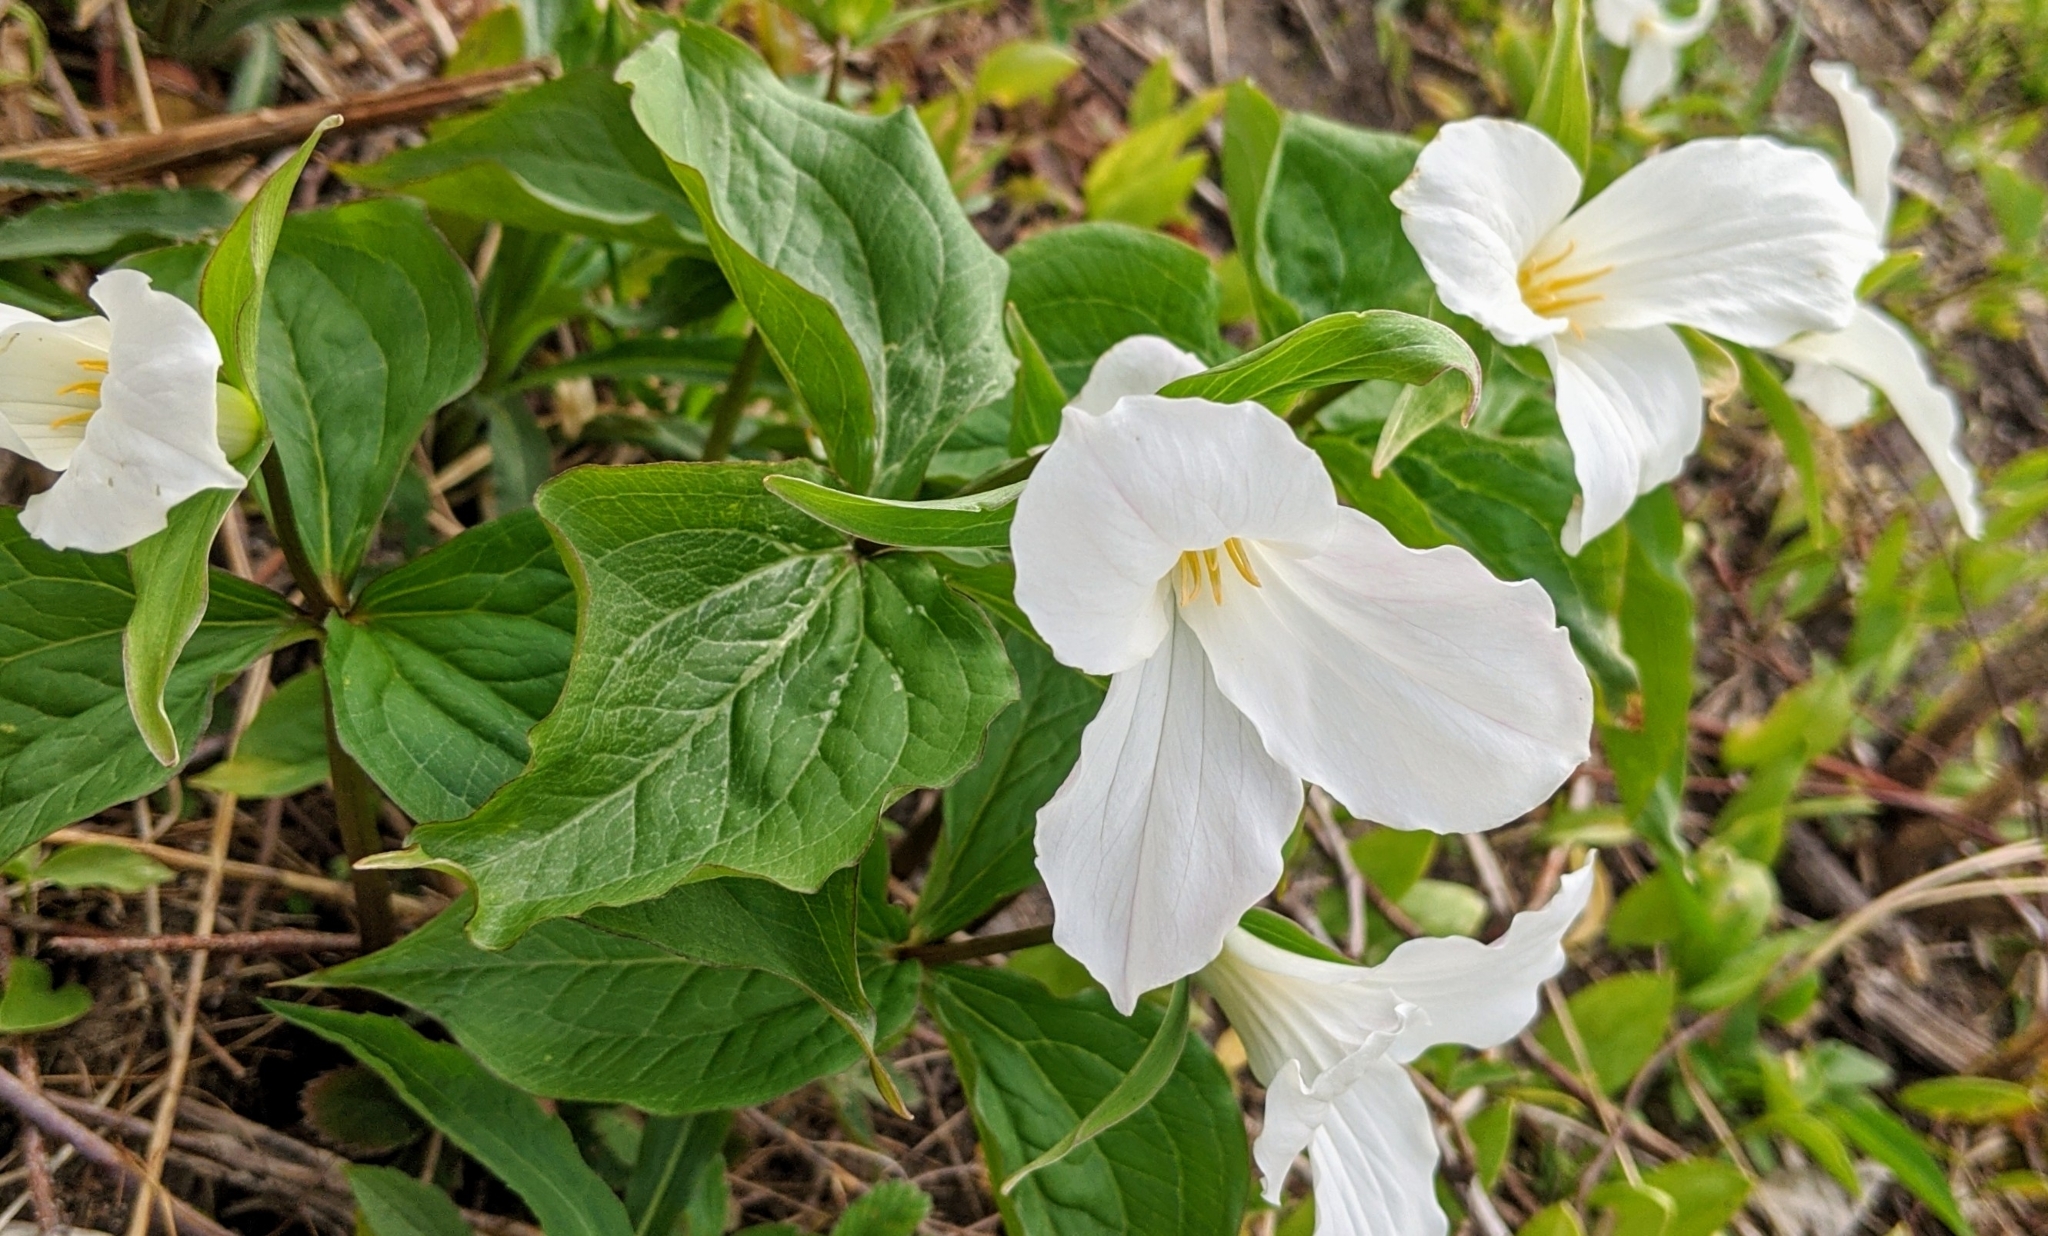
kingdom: Plantae
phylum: Tracheophyta
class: Liliopsida
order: Liliales
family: Melanthiaceae
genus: Trillium
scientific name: Trillium grandiflorum
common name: Great white trillium
